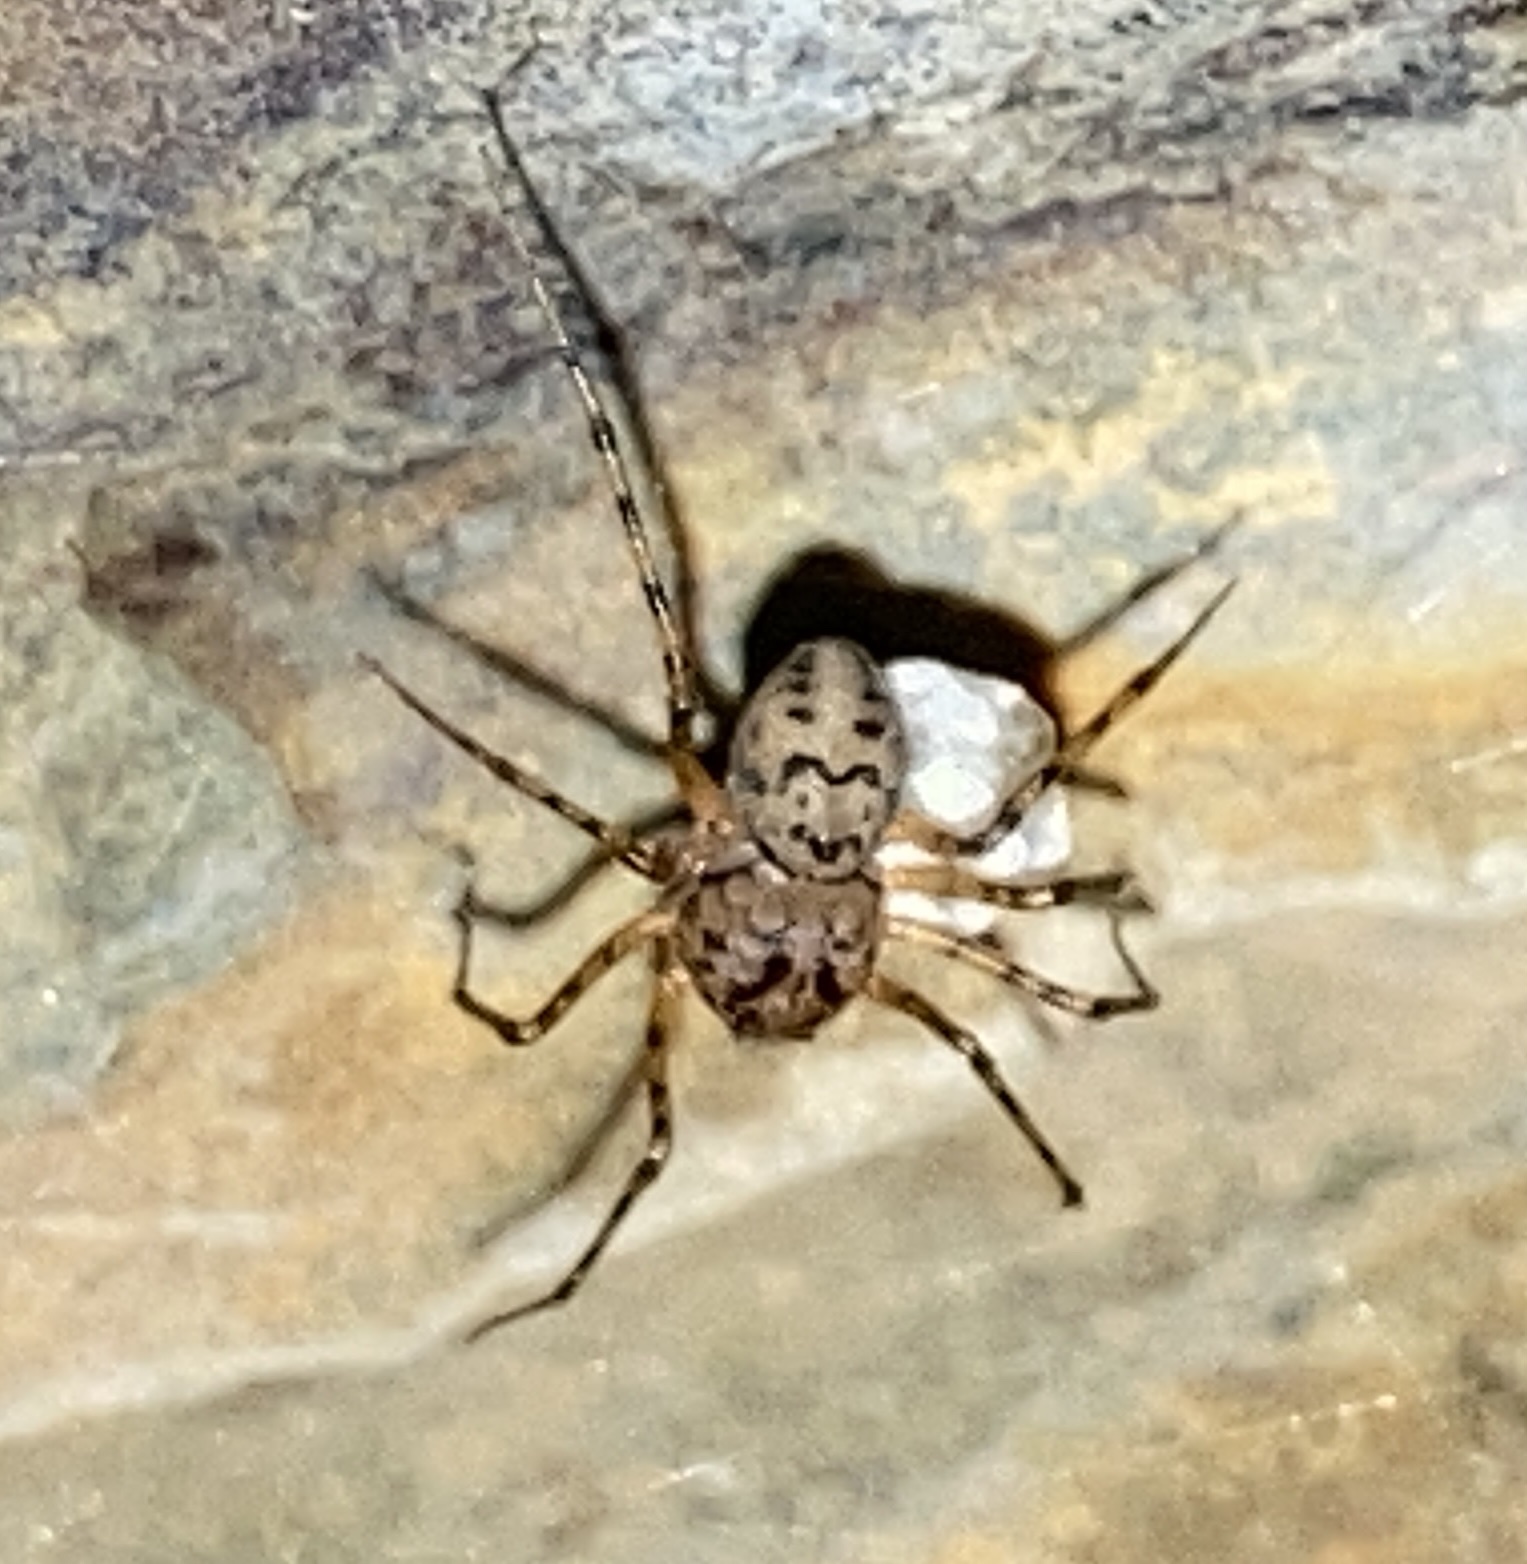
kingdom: Animalia
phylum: Arthropoda
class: Arachnida
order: Araneae
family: Scytodidae
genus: Scytodes
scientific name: Scytodes thoracica
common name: Spitting spider
